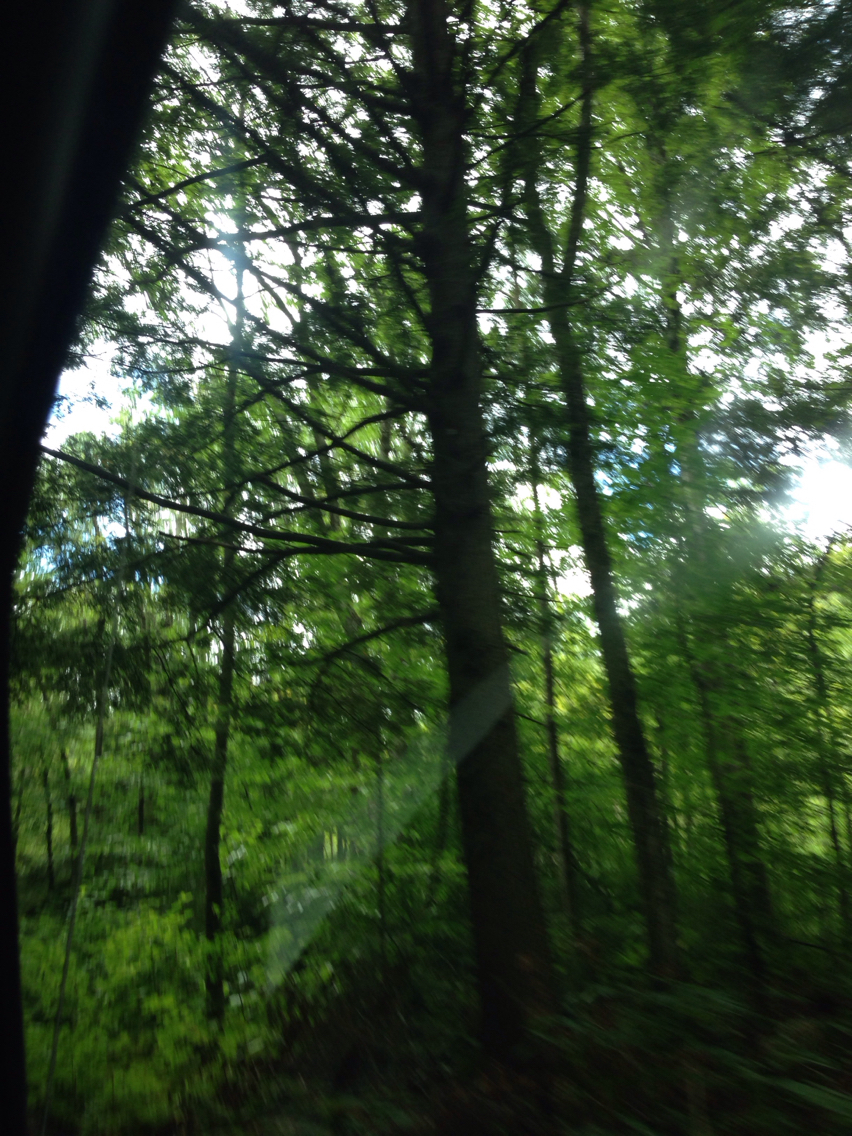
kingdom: Plantae
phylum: Tracheophyta
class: Pinopsida
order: Pinales
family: Pinaceae
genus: Tsuga
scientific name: Tsuga canadensis
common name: Eastern hemlock
